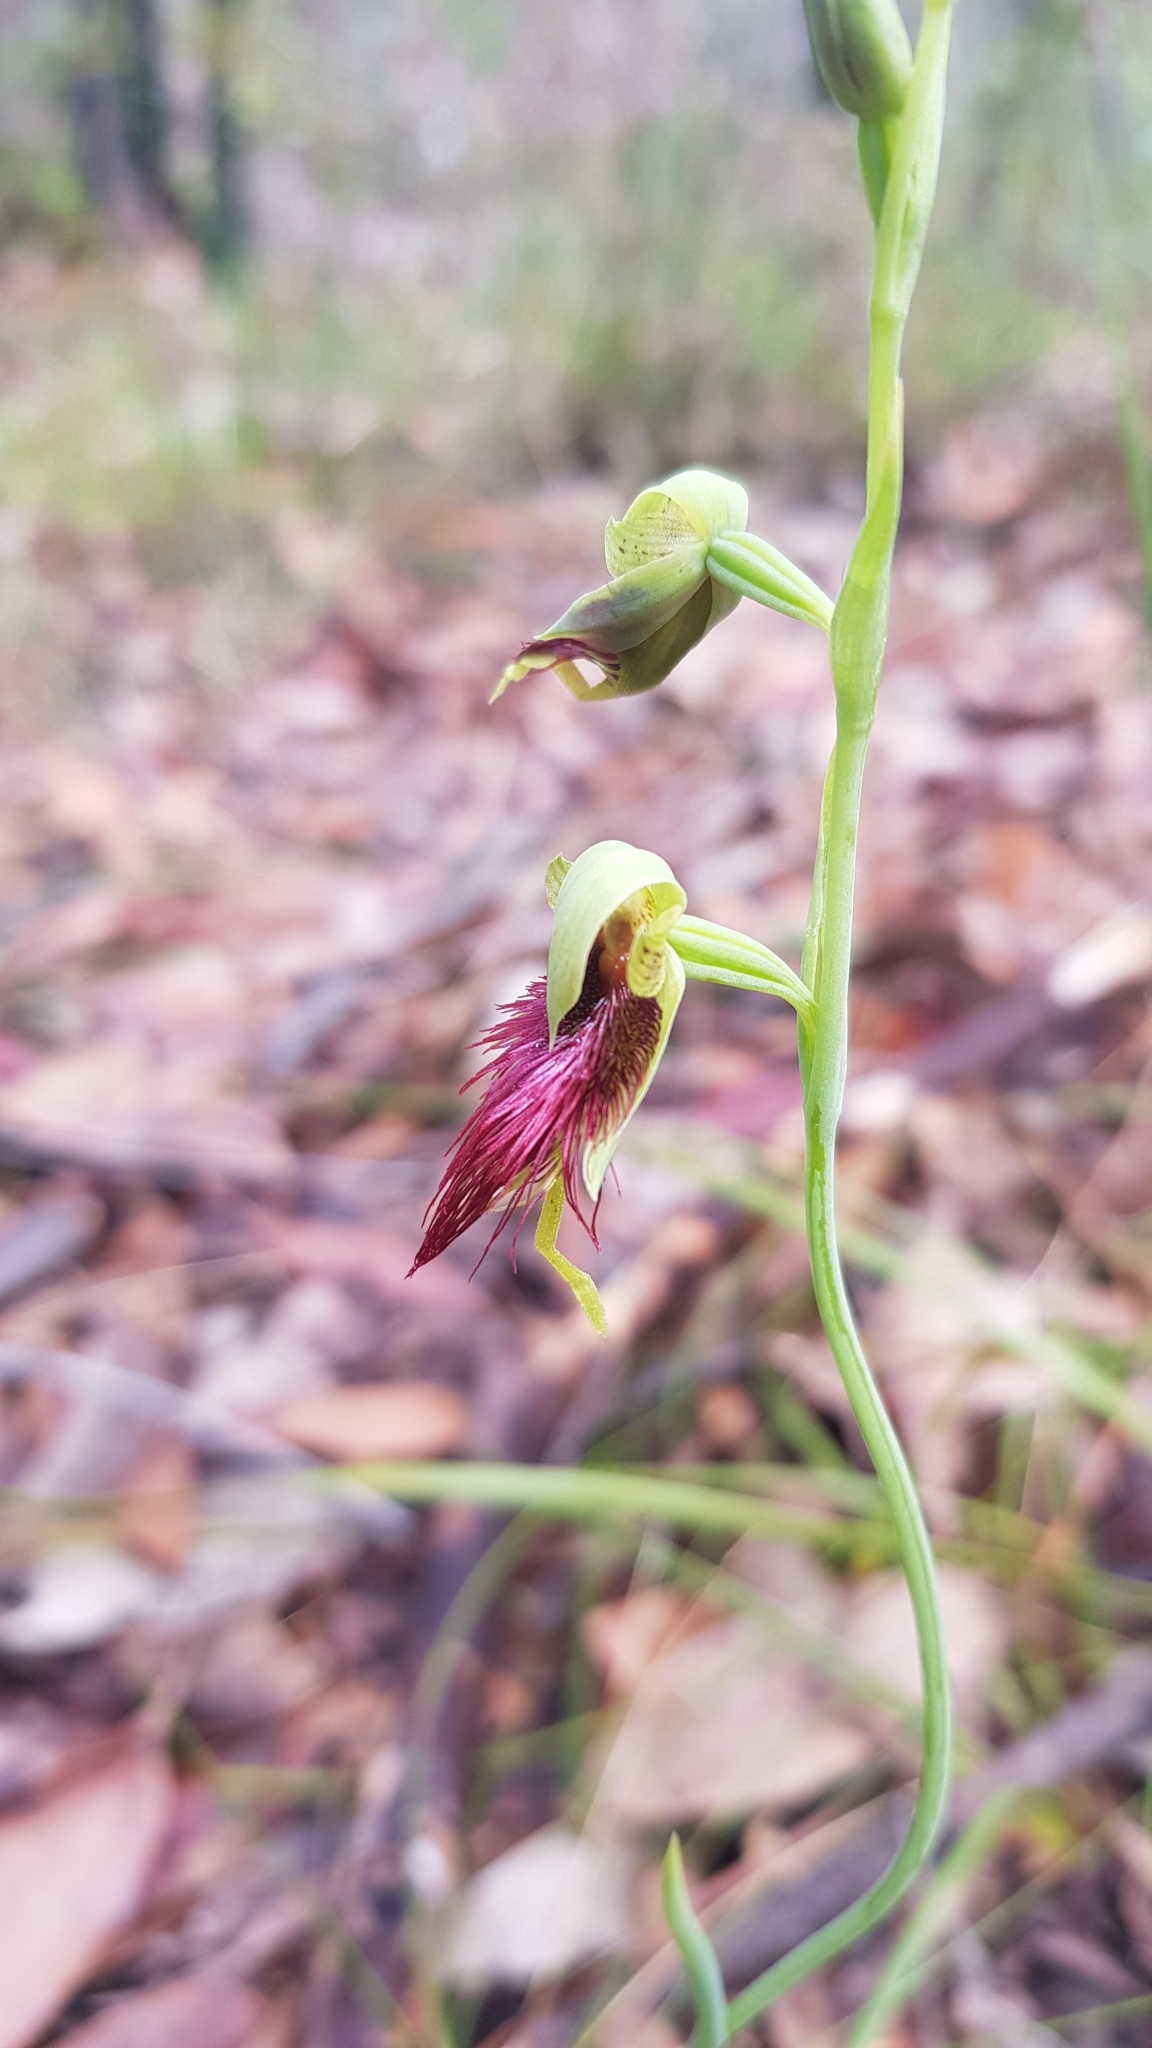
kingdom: Plantae
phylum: Tracheophyta
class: Liliopsida
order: Asparagales
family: Orchidaceae
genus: Calochilus
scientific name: Calochilus paludosus
